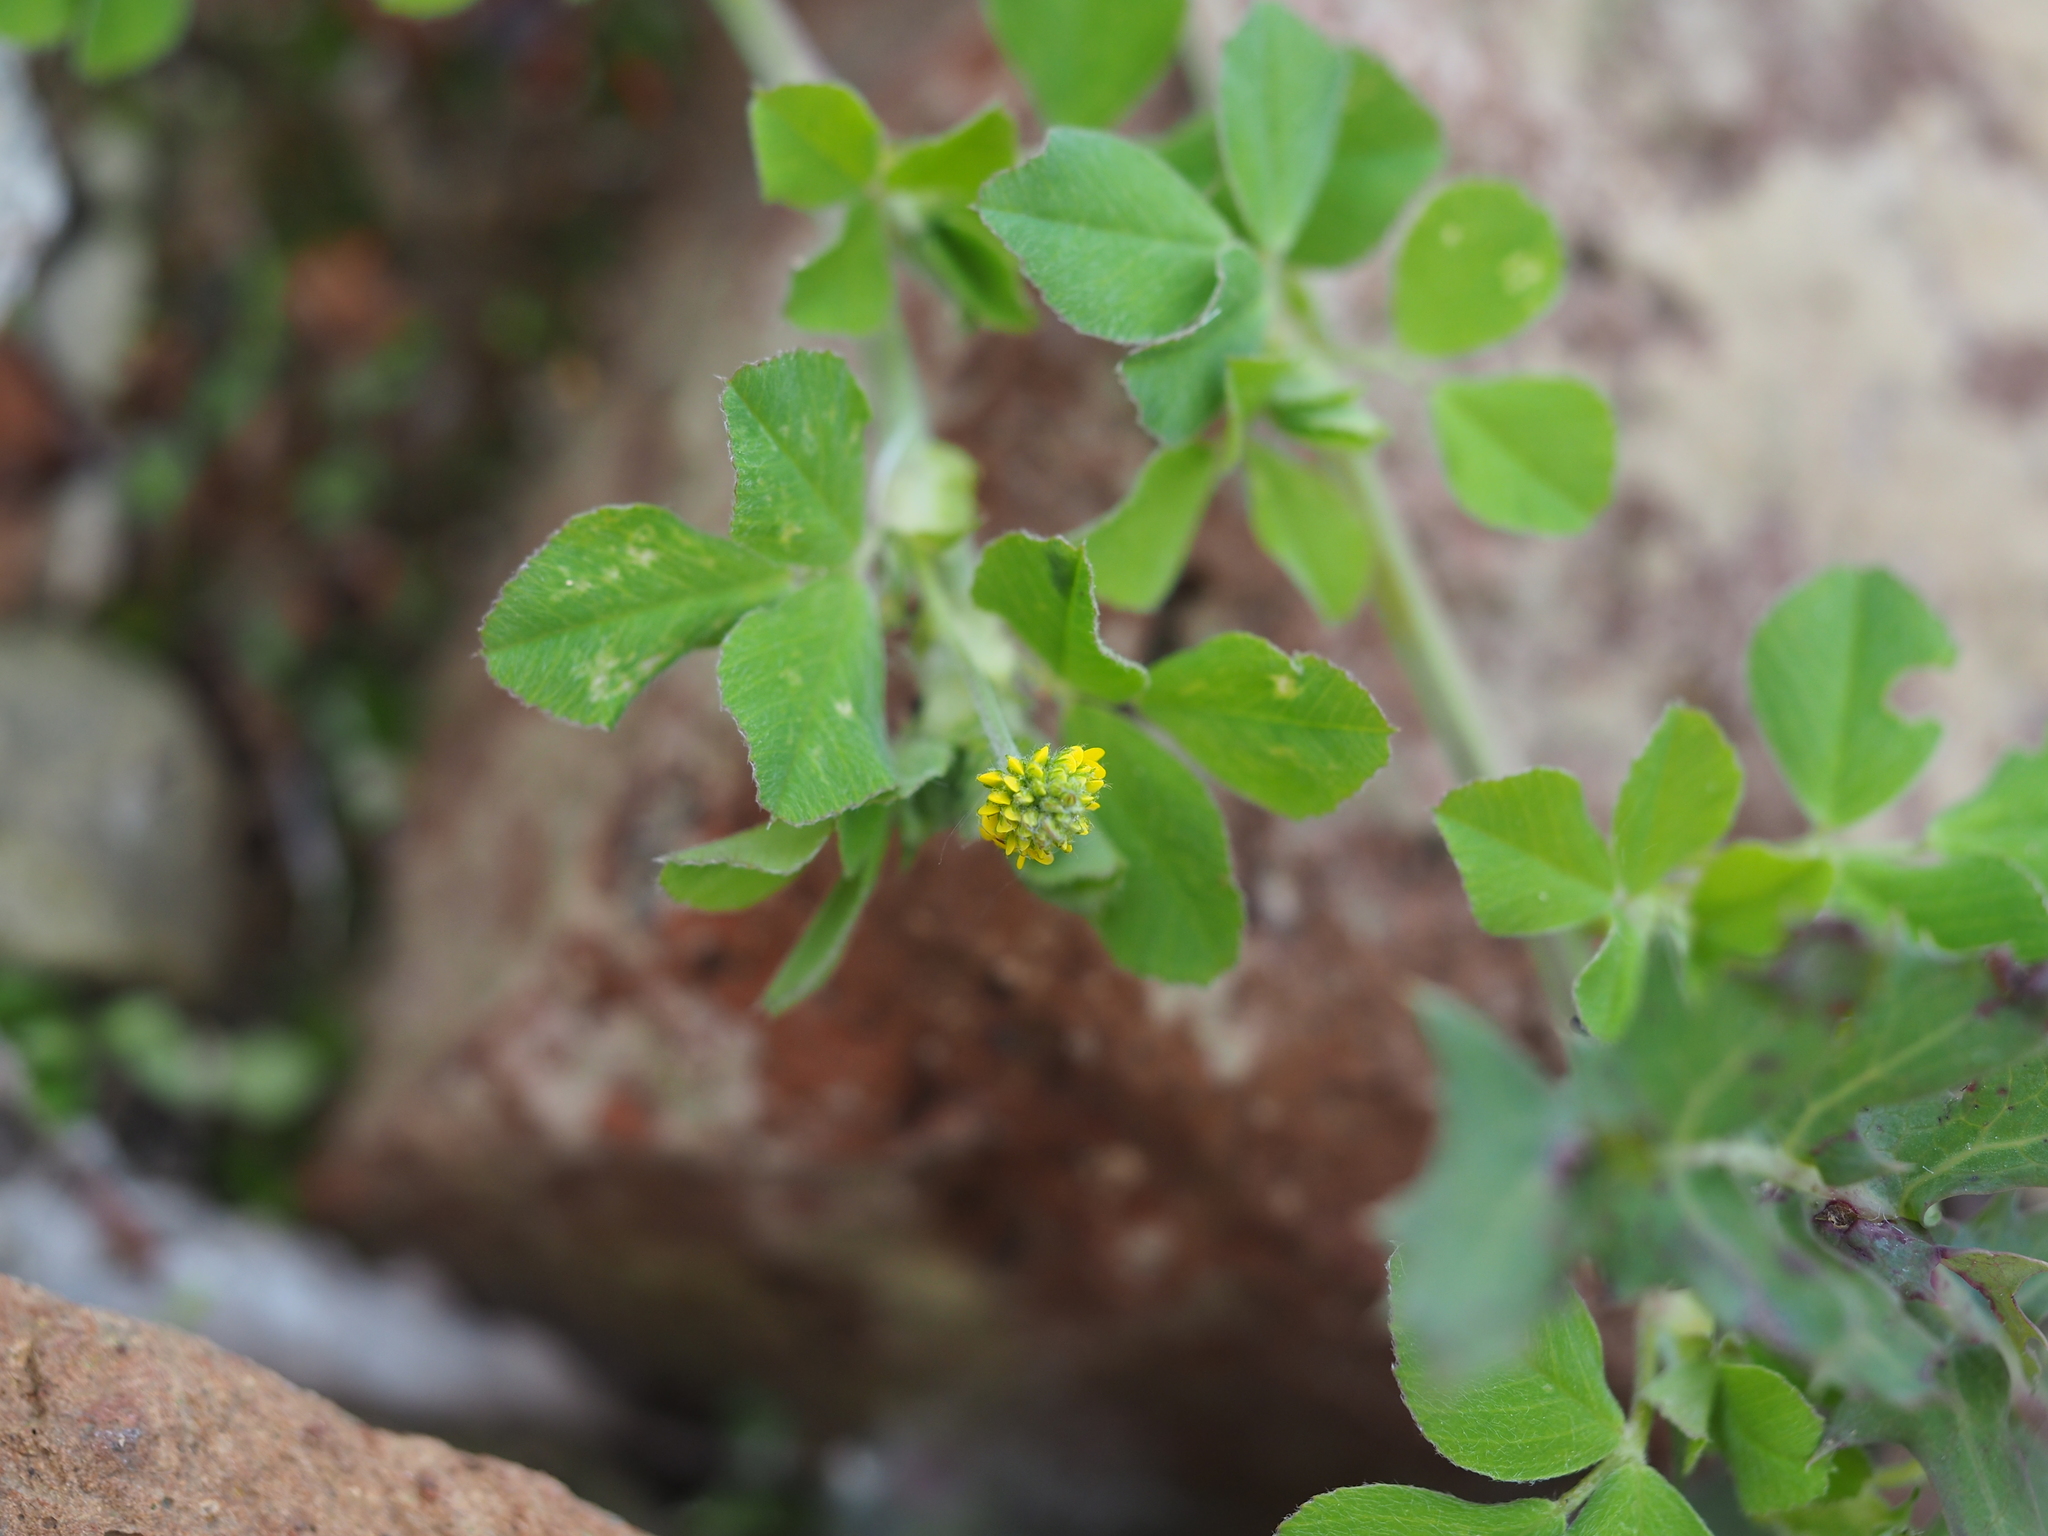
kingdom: Plantae
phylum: Tracheophyta
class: Magnoliopsida
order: Fabales
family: Fabaceae
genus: Medicago
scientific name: Medicago lupulina
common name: Black medick
